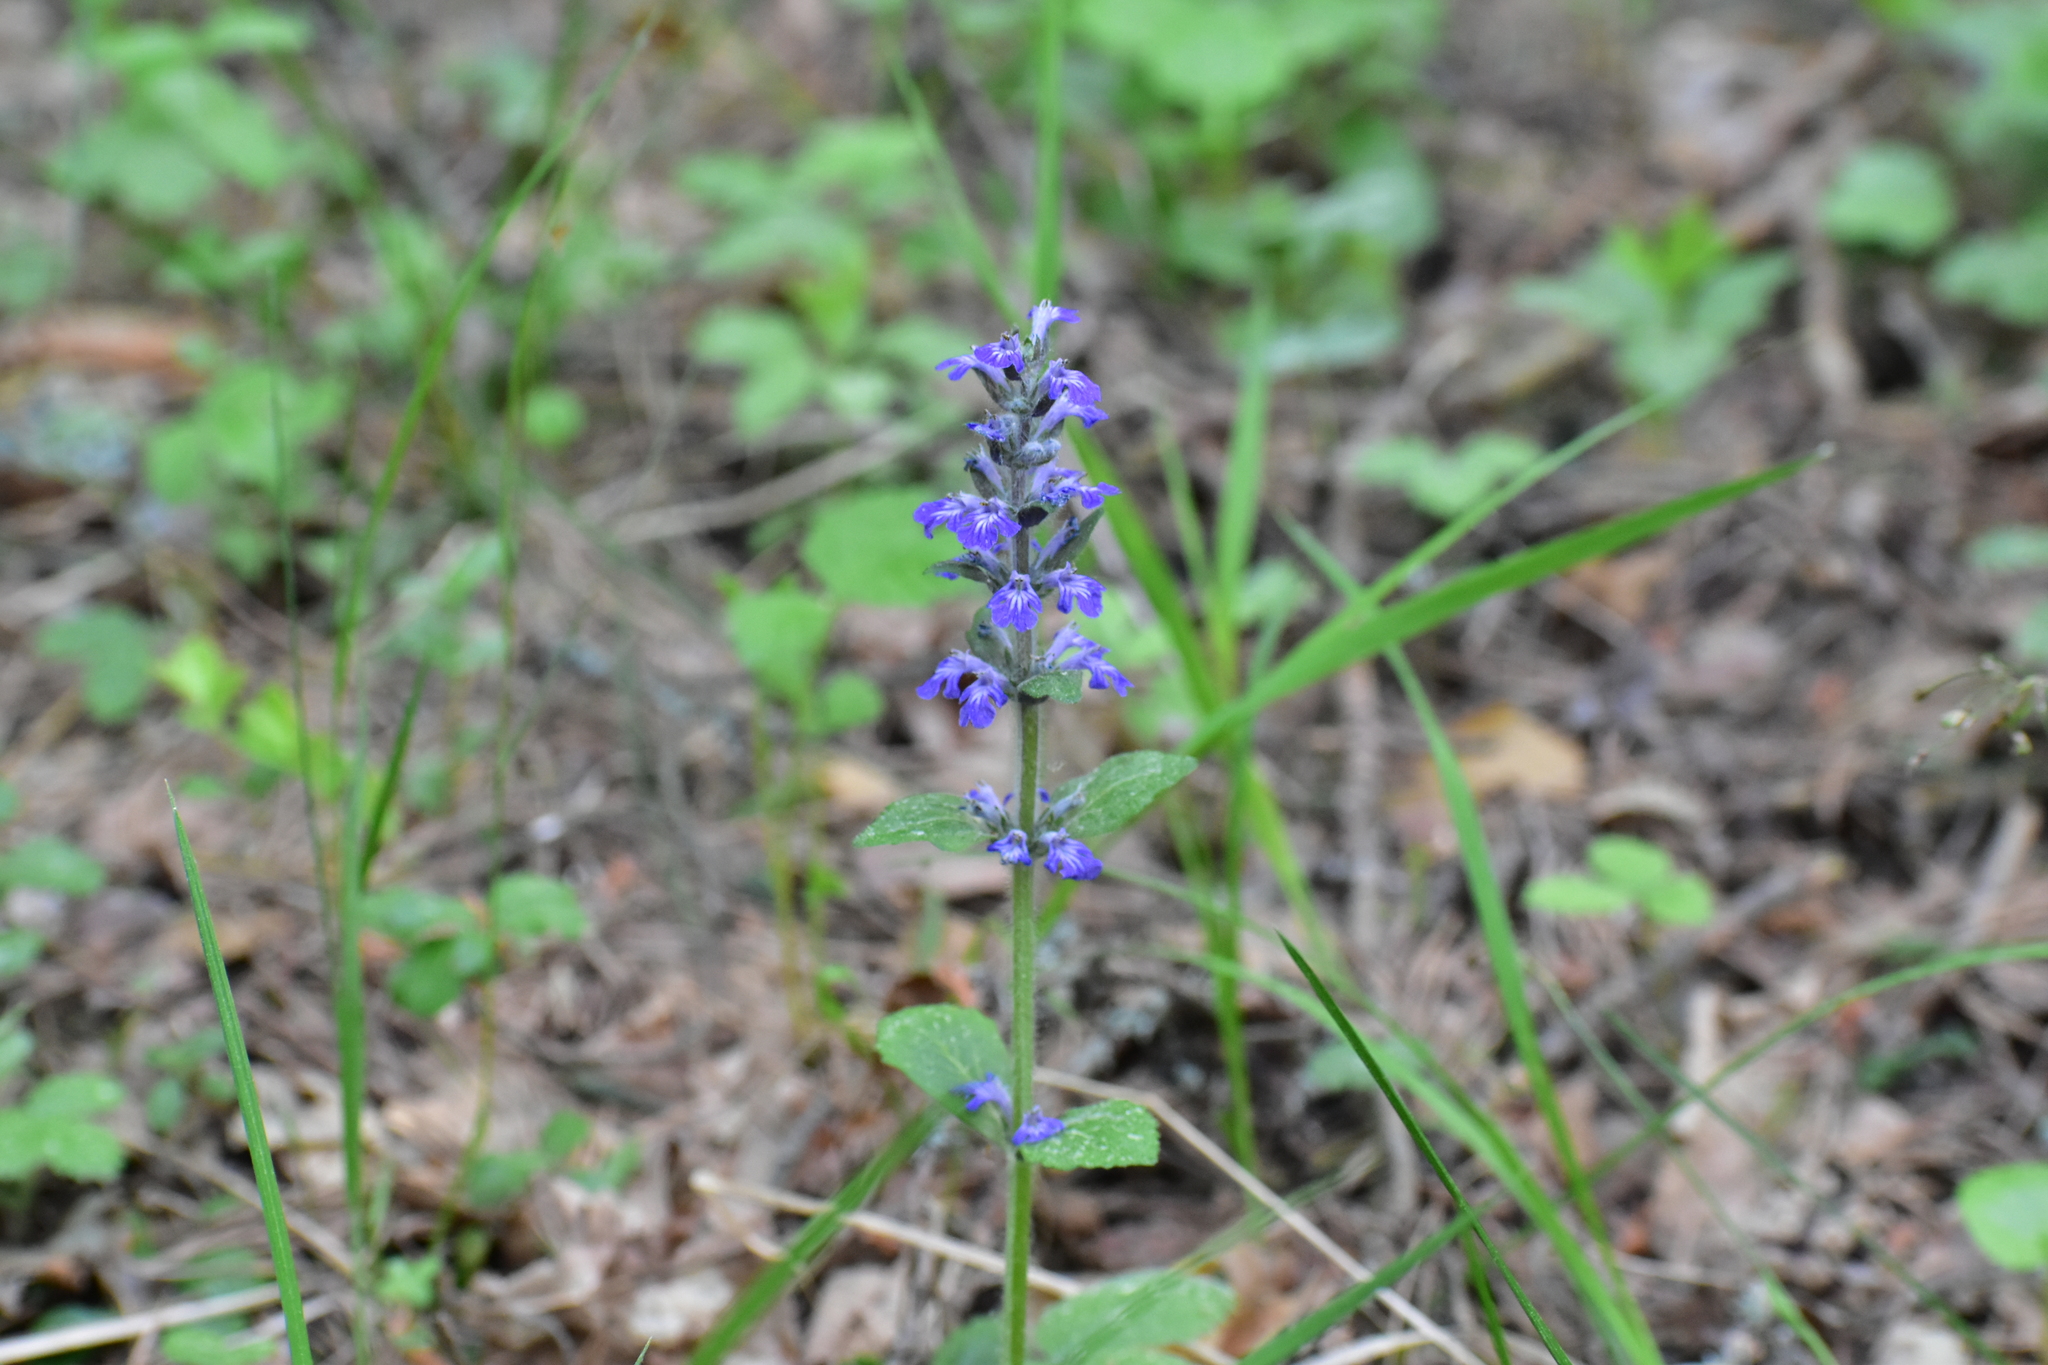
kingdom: Plantae
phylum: Tracheophyta
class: Magnoliopsida
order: Lamiales
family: Lamiaceae
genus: Ajuga
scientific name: Ajuga reptans
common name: Bugle
